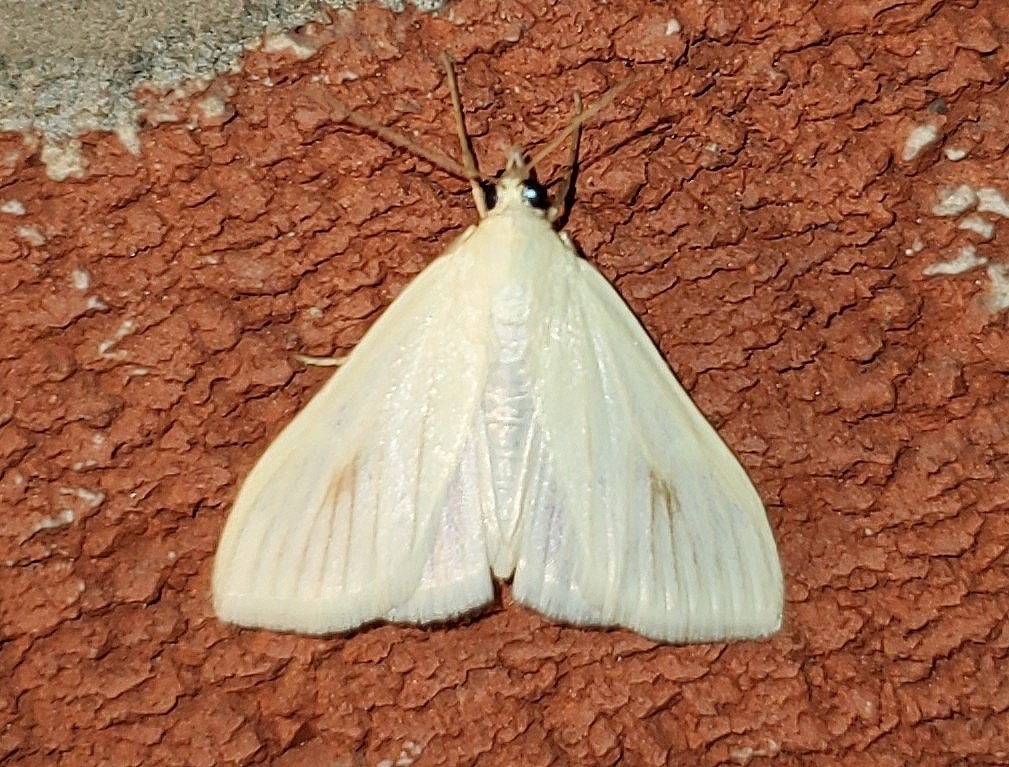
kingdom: Animalia
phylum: Arthropoda
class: Insecta
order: Lepidoptera
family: Crambidae
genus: Sitochroa
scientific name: Sitochroa palealis
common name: Greenish-yellow sitochroa moth
